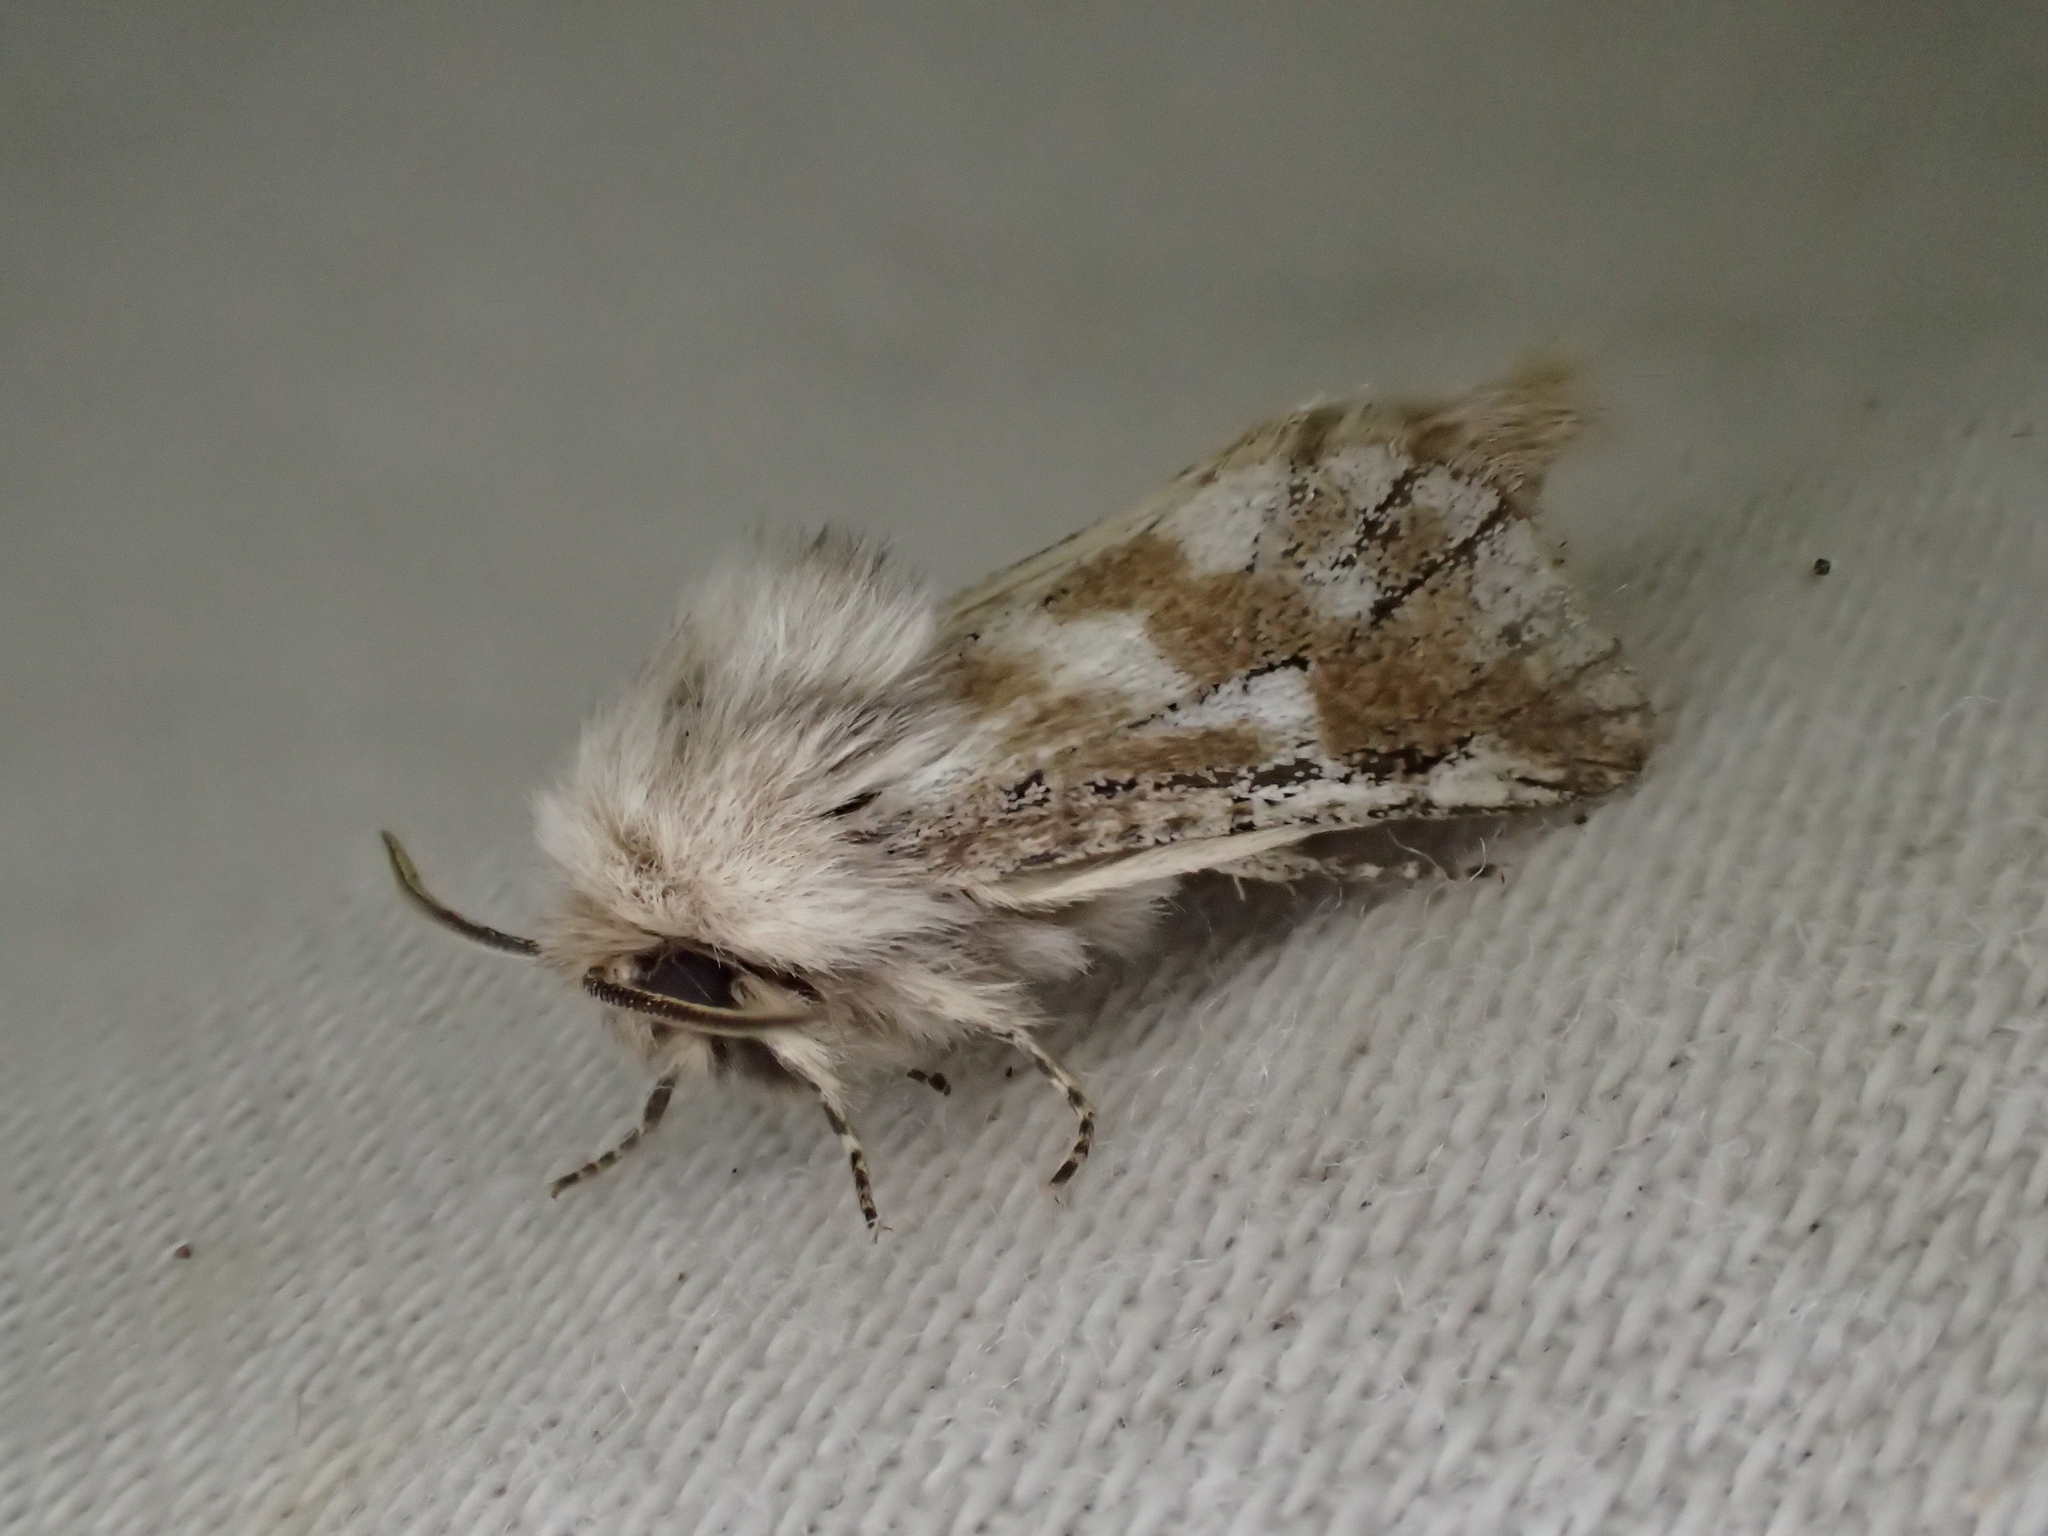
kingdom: Animalia
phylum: Arthropoda
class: Insecta
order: Lepidoptera
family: Cossidae
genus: Dyspessa
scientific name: Dyspessa ulula
